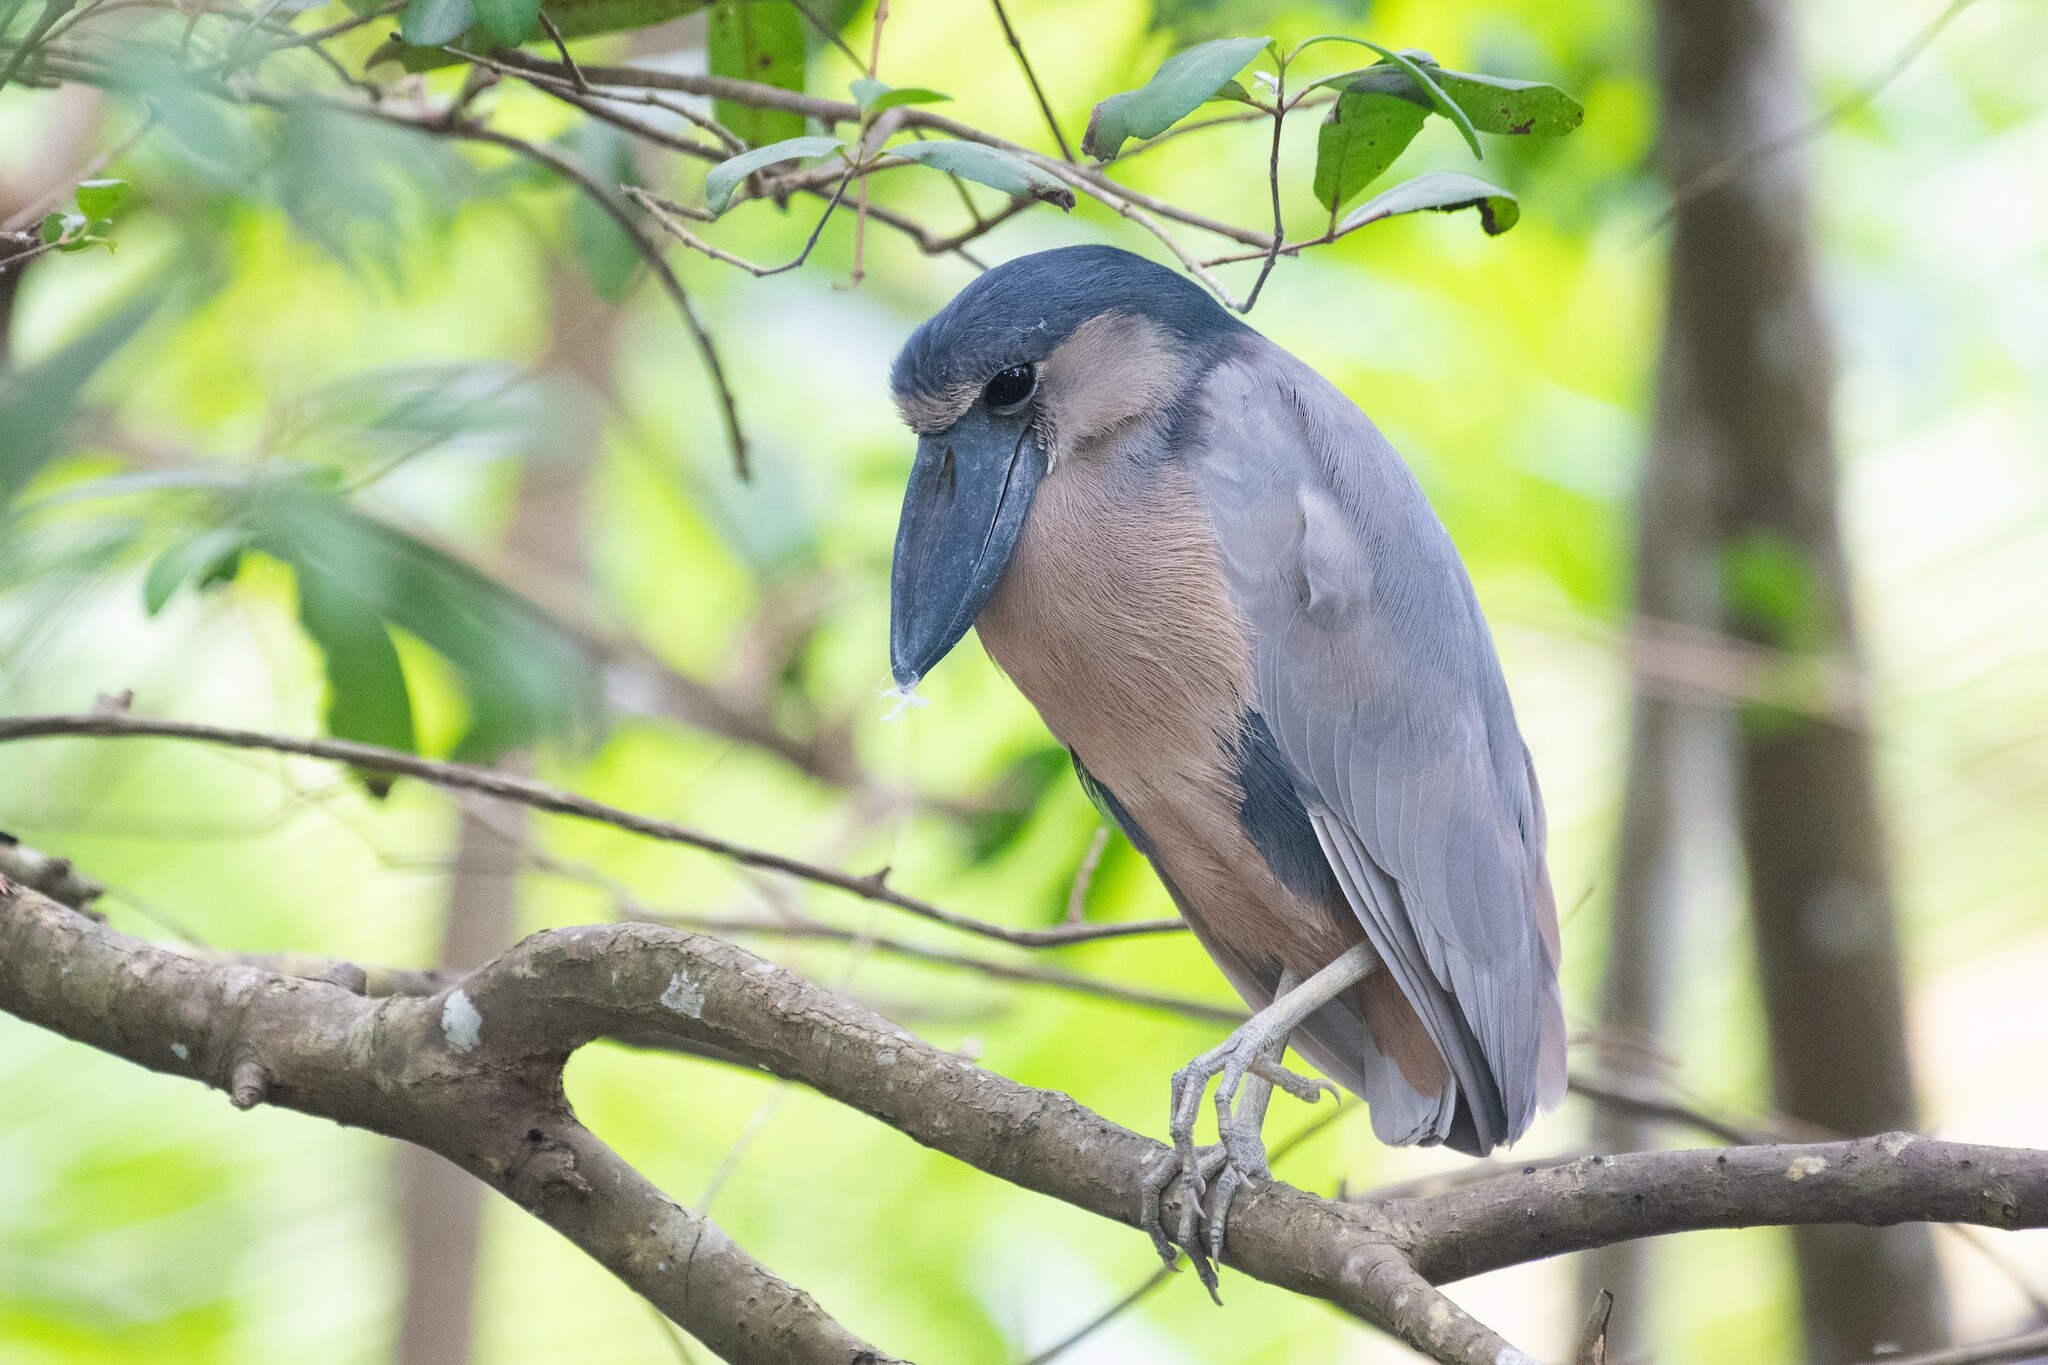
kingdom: Animalia
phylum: Chordata
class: Aves
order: Pelecaniformes
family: Ardeidae
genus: Cochlearius
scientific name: Cochlearius cochlearius
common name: Boat-billed heron
